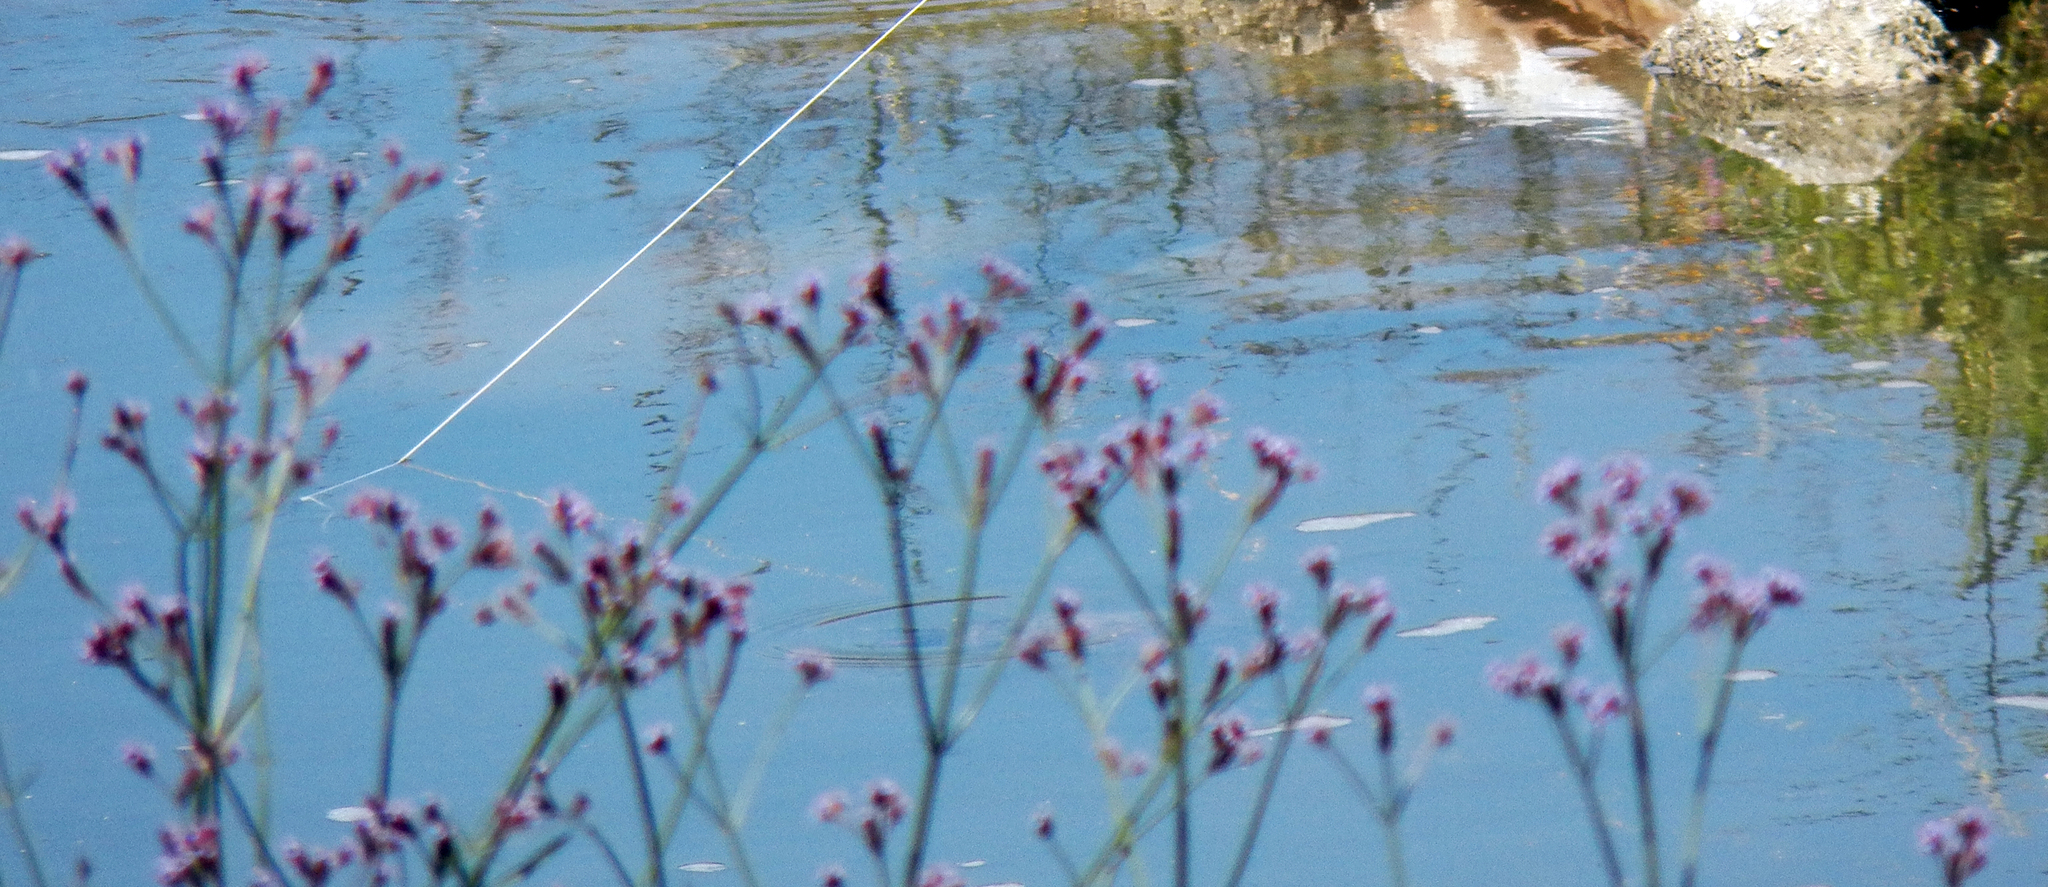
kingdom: Plantae
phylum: Tracheophyta
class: Magnoliopsida
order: Lamiales
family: Verbenaceae
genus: Verbena
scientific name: Verbena brasiliensis
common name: Brazilian vervain
